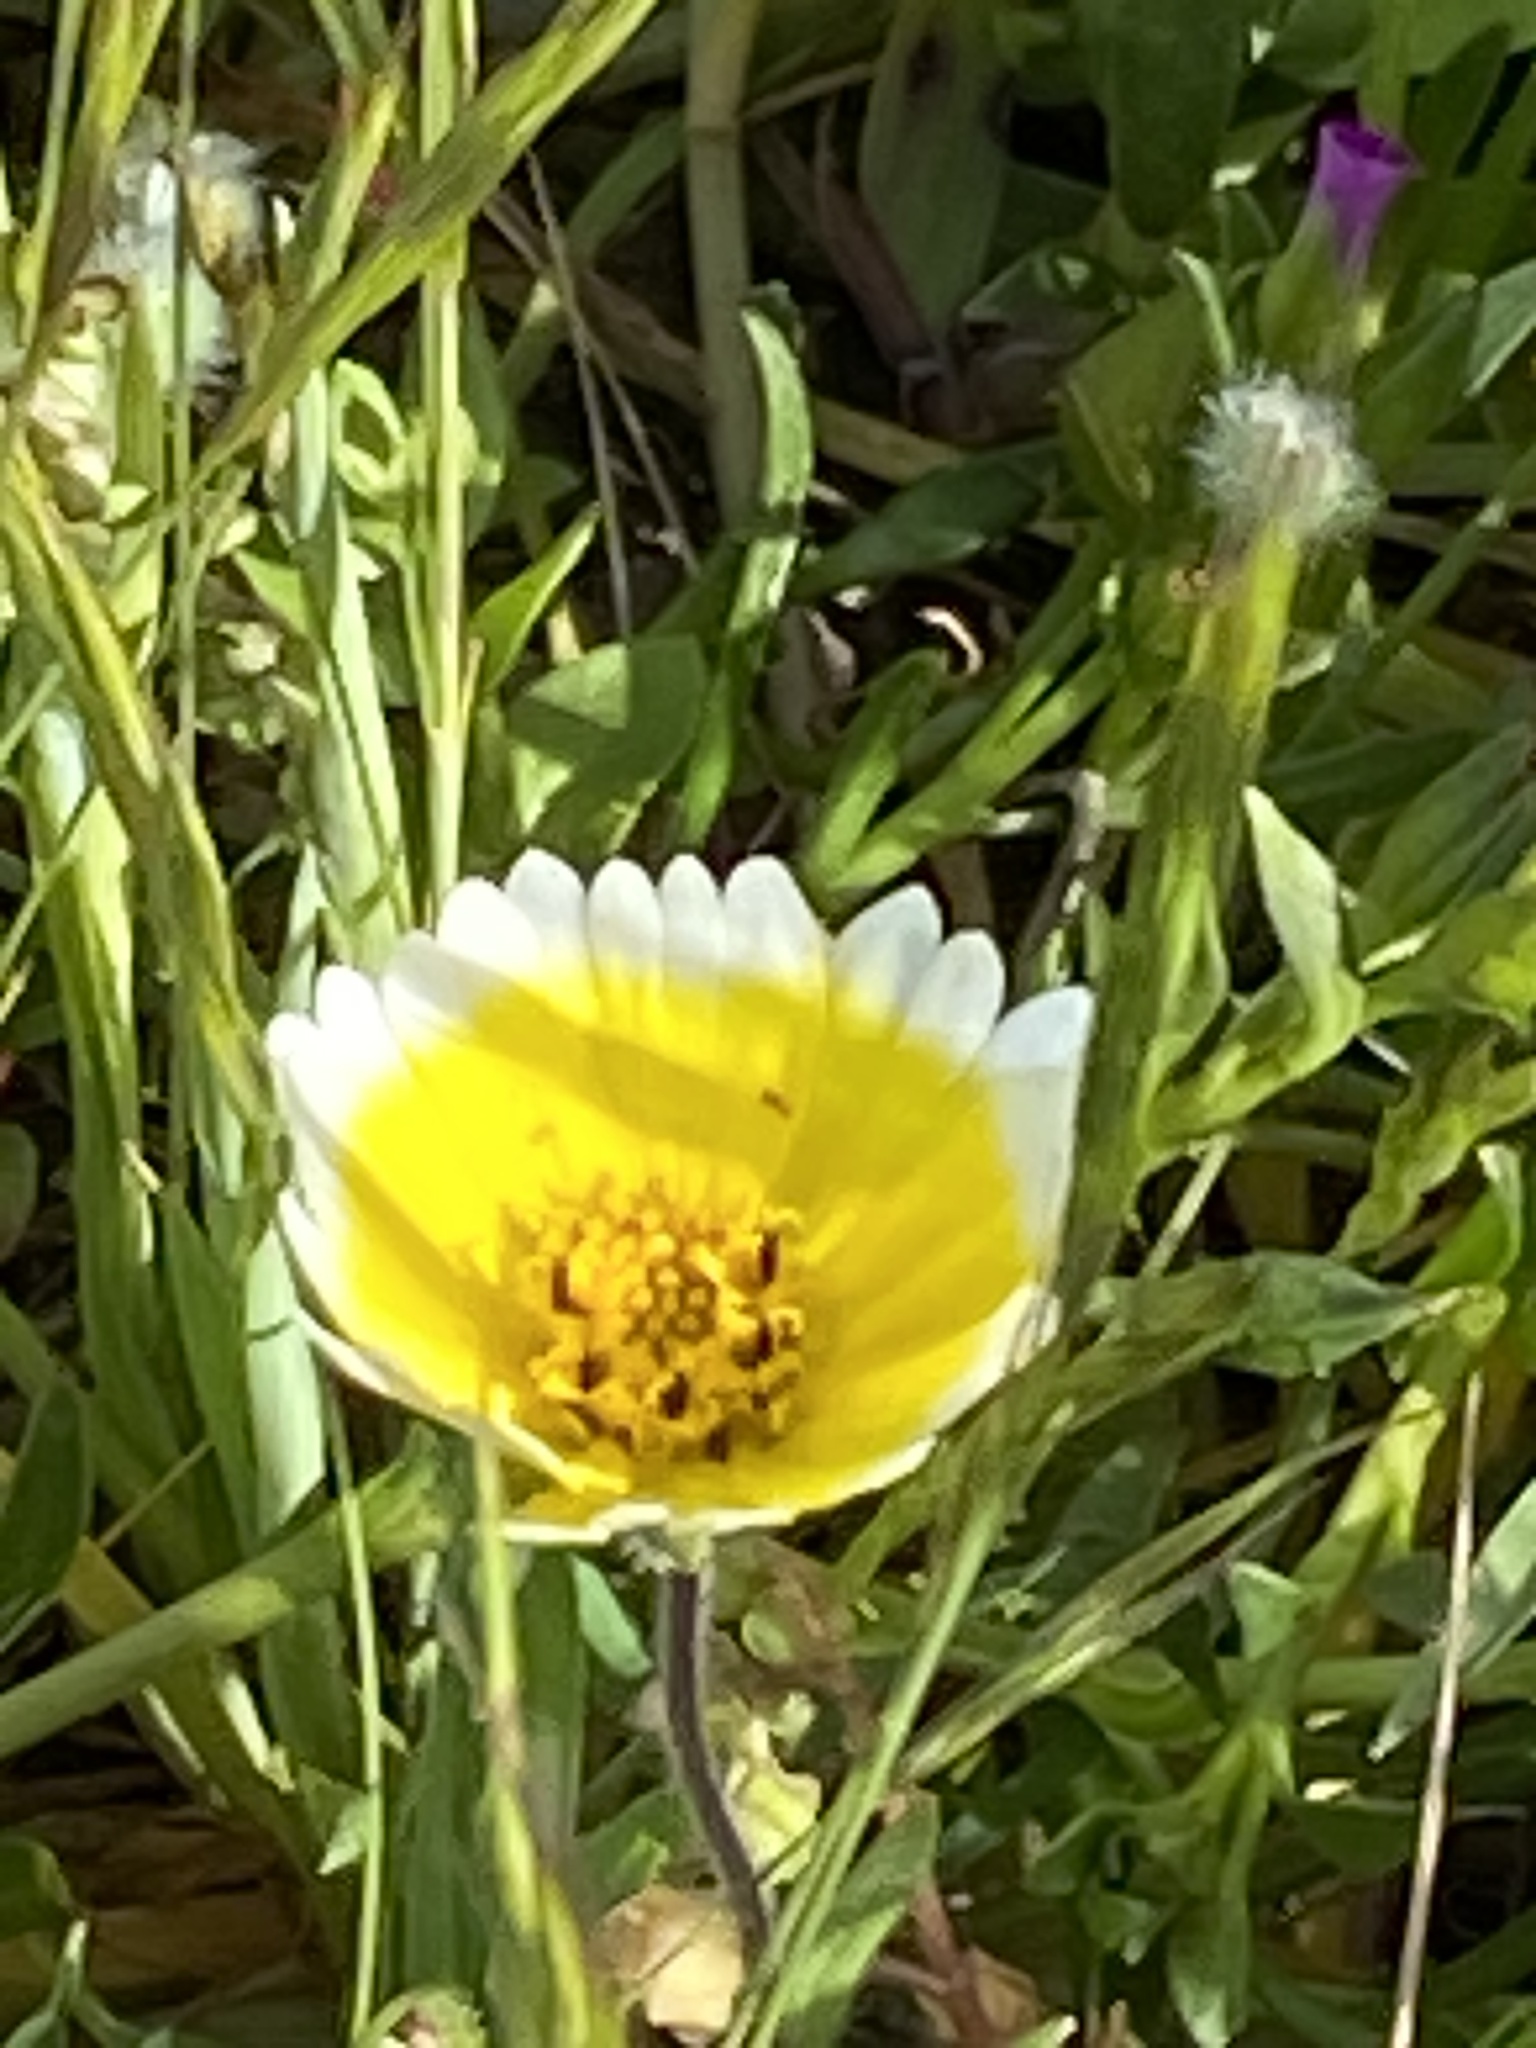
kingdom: Plantae
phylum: Tracheophyta
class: Magnoliopsida
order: Asterales
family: Asteraceae
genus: Layia
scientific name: Layia platyglossa
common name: Tidy-tips
